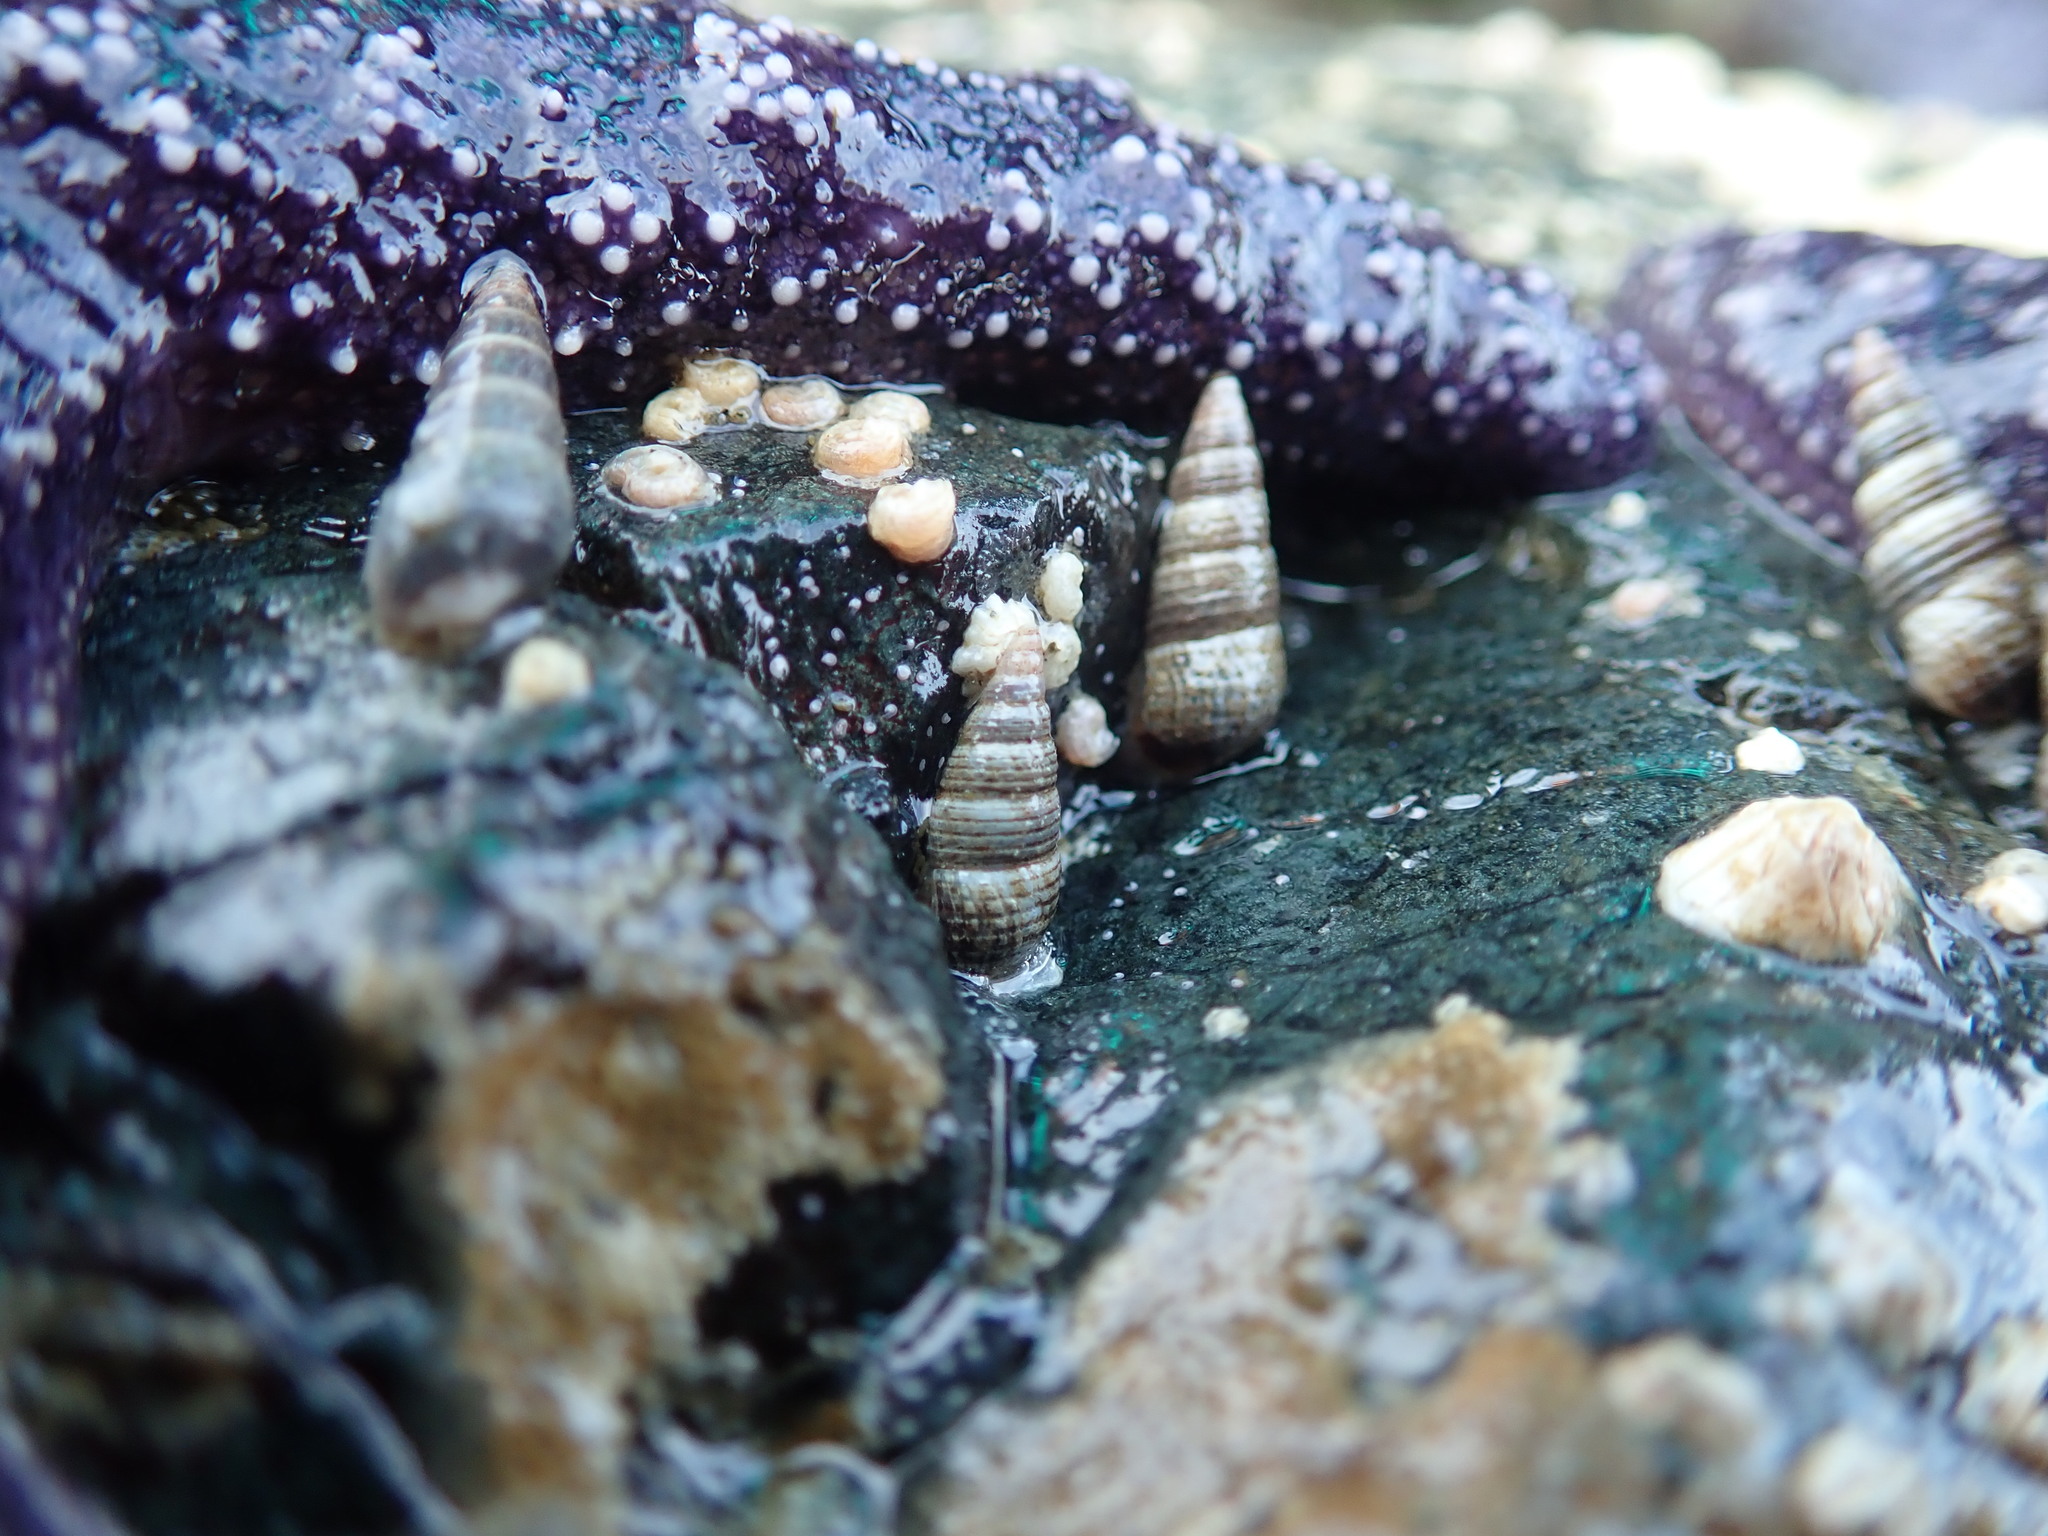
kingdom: Animalia
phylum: Mollusca
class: Gastropoda
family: Cerithiidae
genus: Neostylidium
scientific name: Neostylidium eschrichtii
